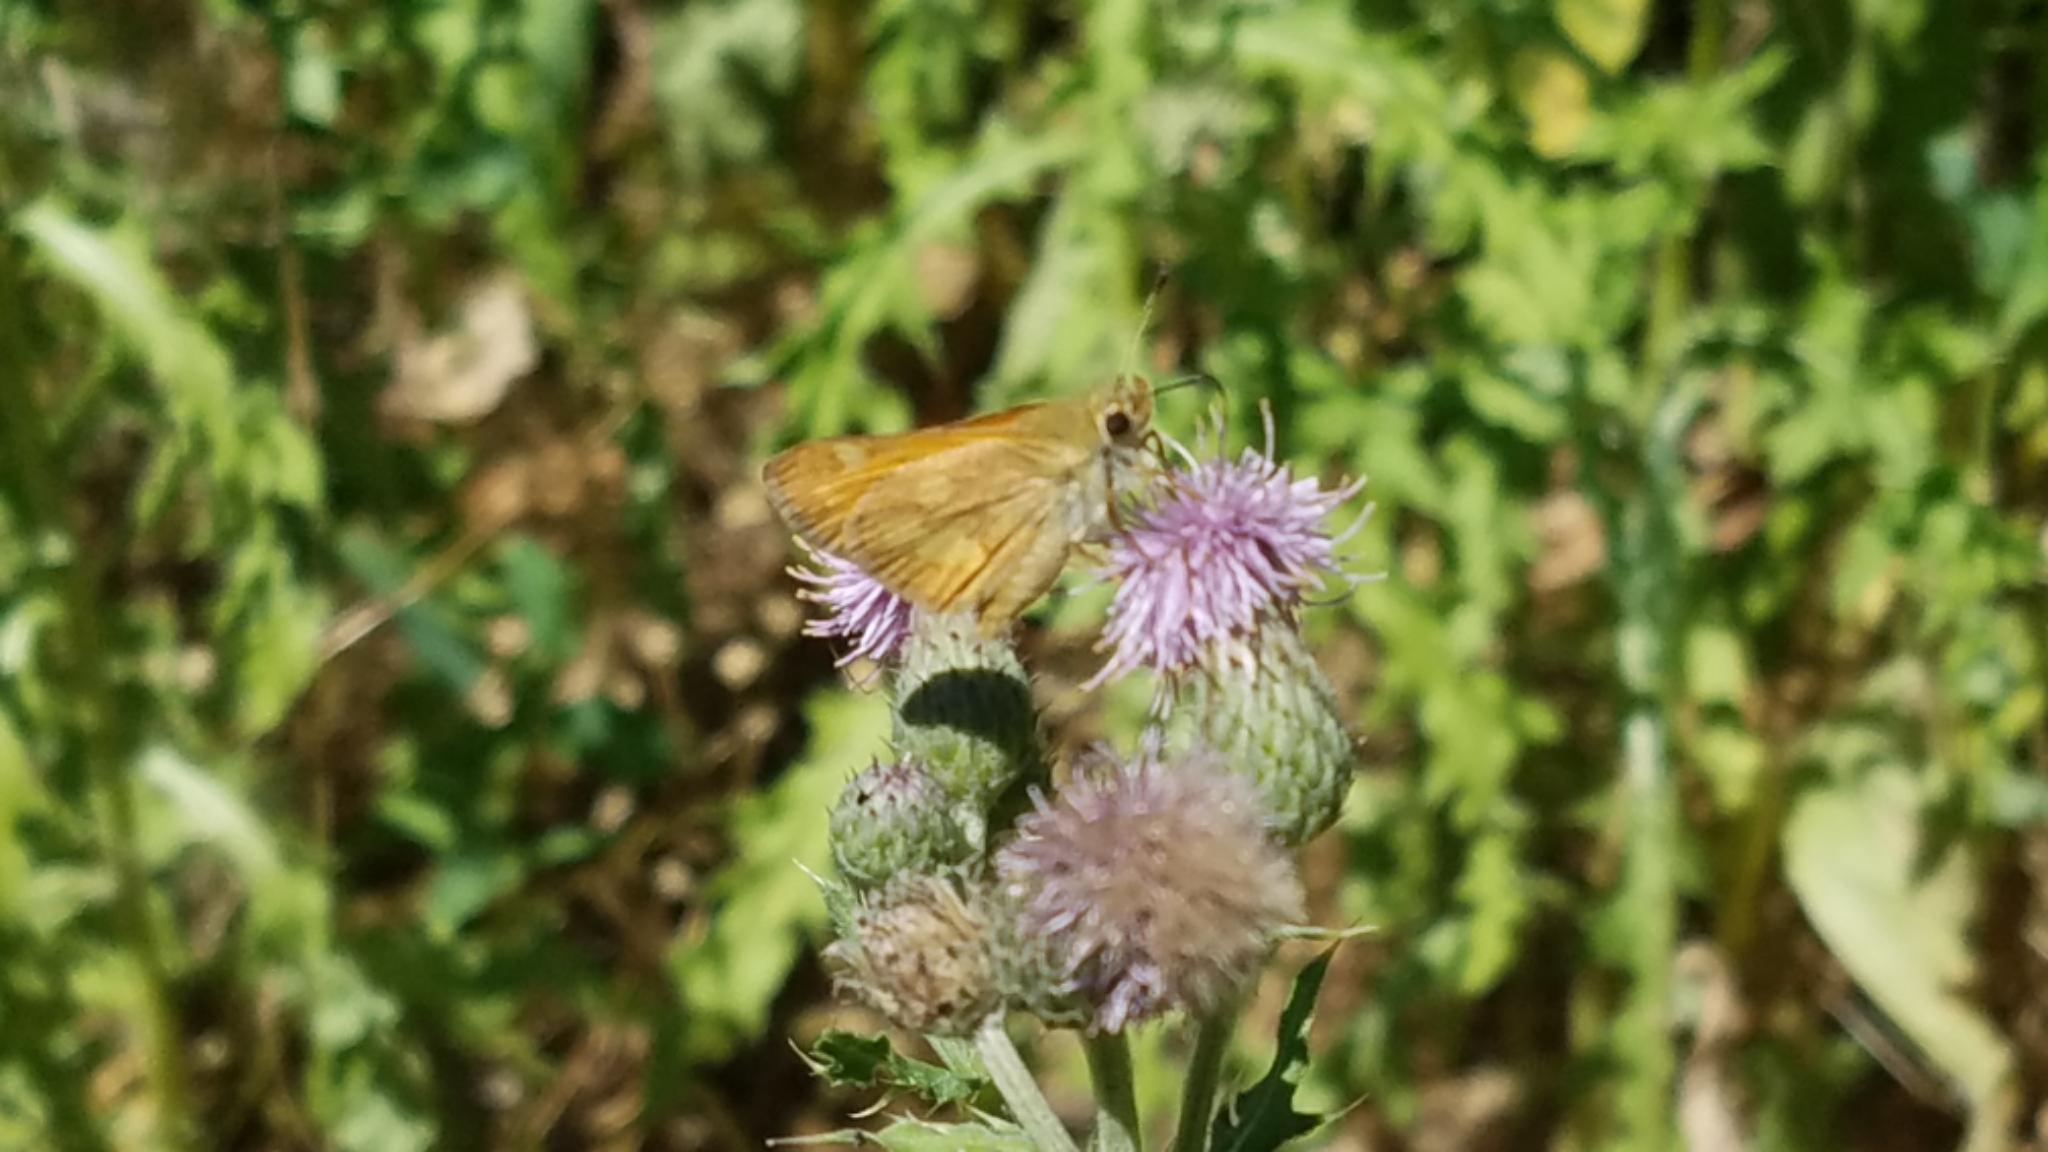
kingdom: Animalia
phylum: Arthropoda
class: Insecta
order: Lepidoptera
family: Hesperiidae
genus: Ochlodes
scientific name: Ochlodes sylvanoides
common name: Woodland skipper
